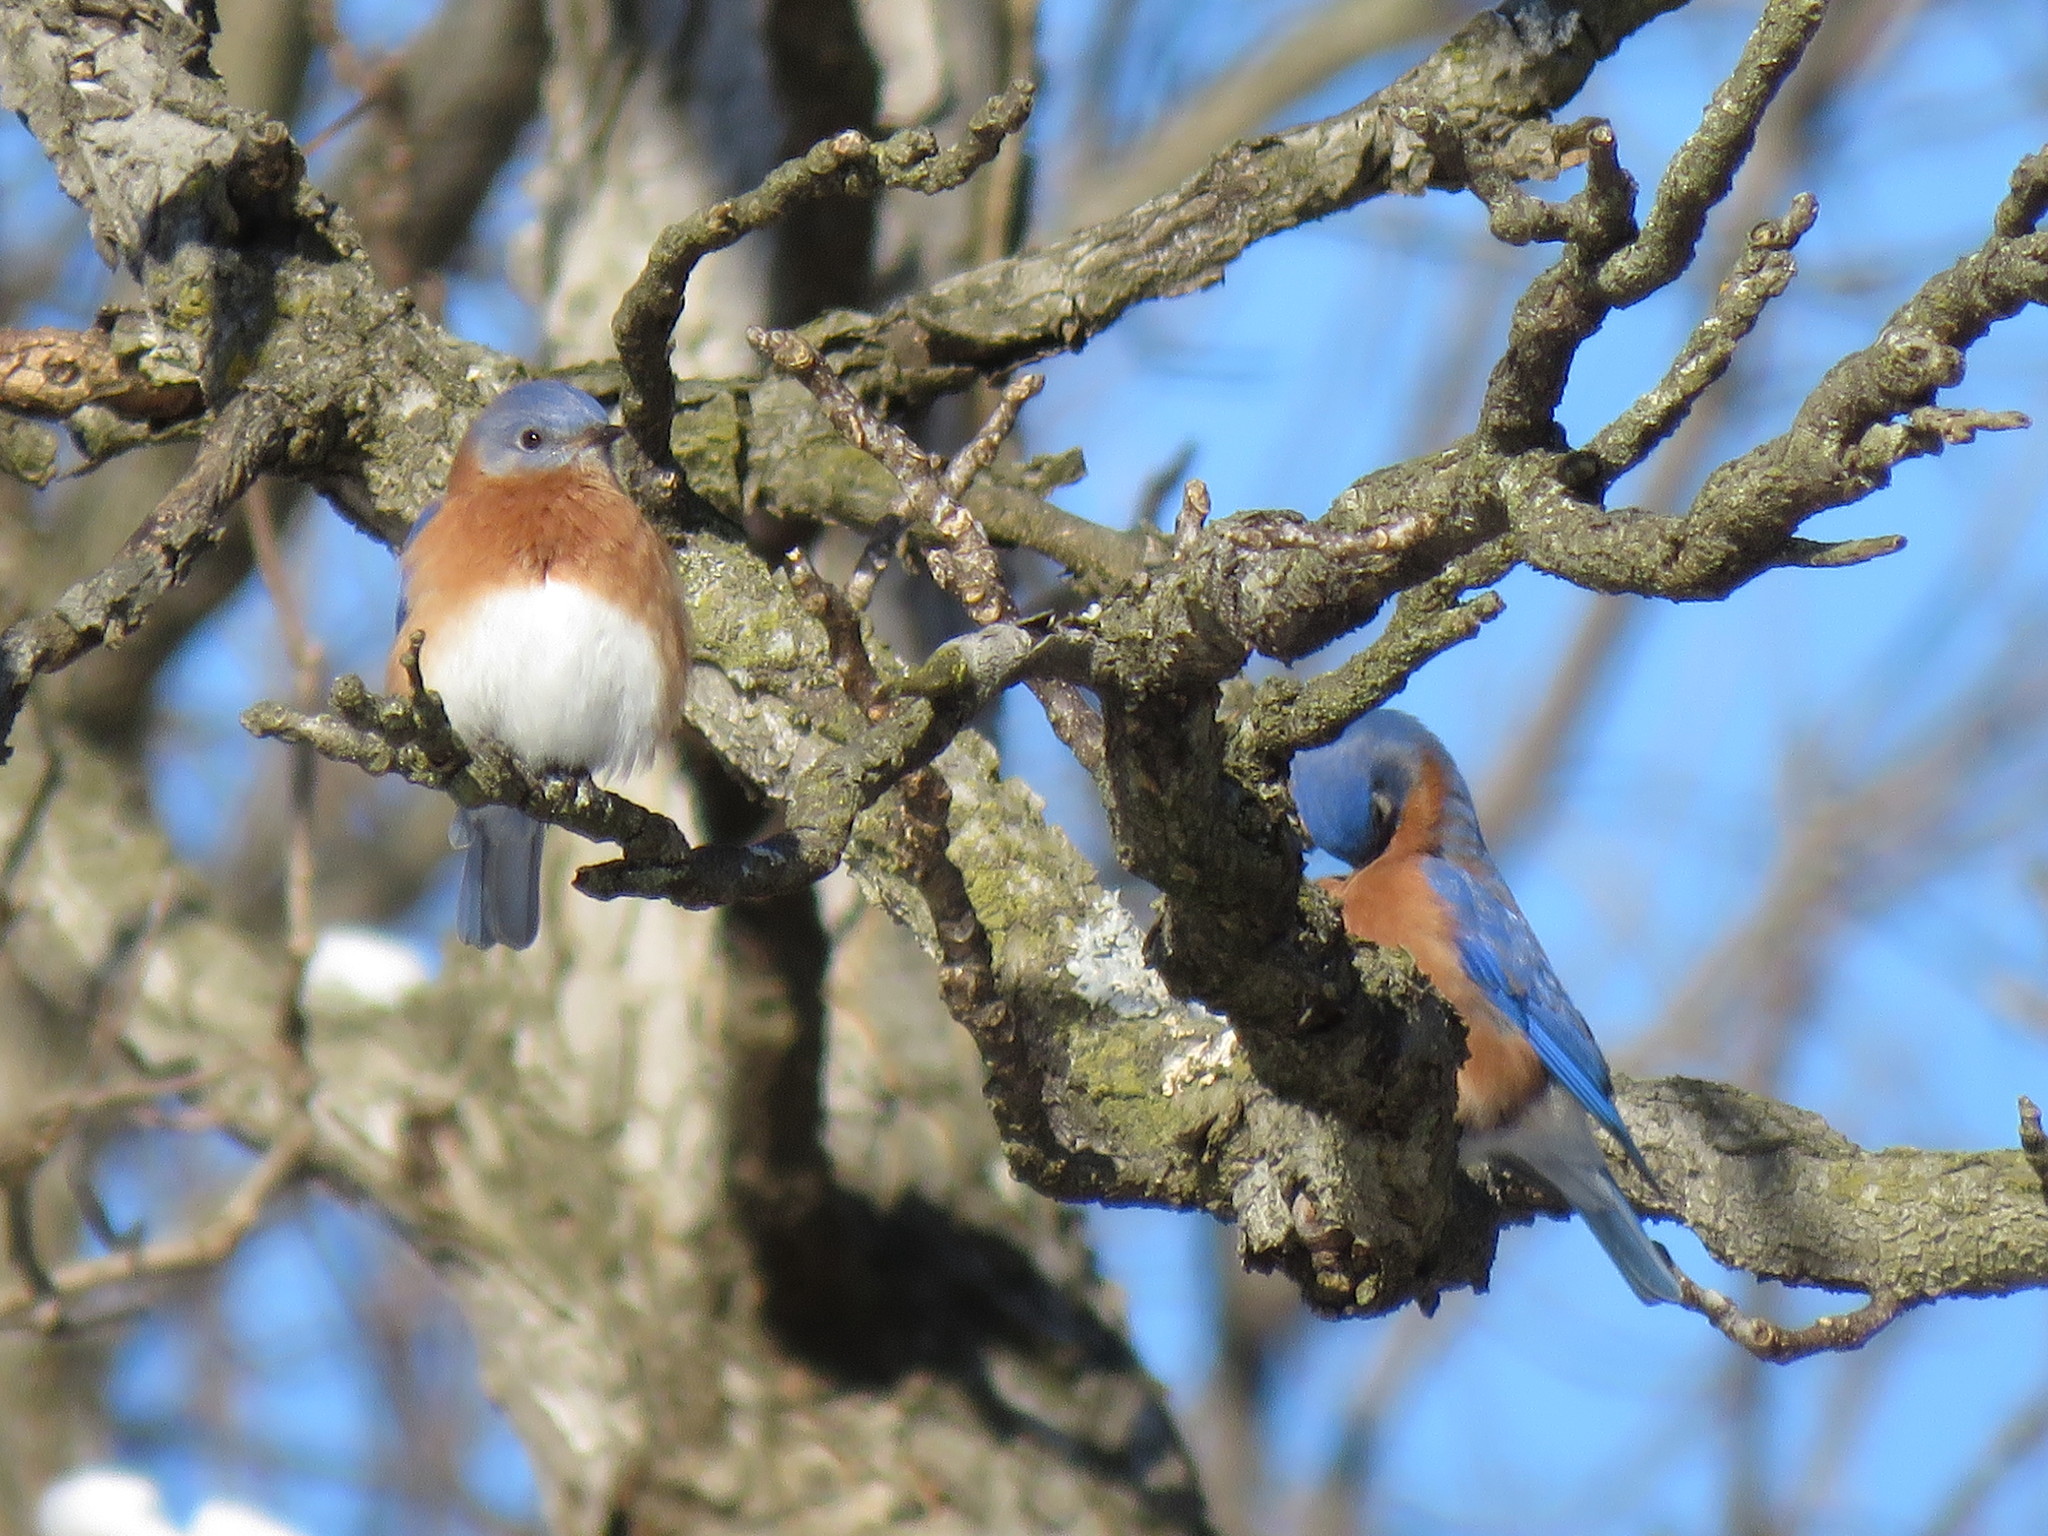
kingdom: Animalia
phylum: Chordata
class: Aves
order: Passeriformes
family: Turdidae
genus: Sialia
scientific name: Sialia sialis
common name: Eastern bluebird
